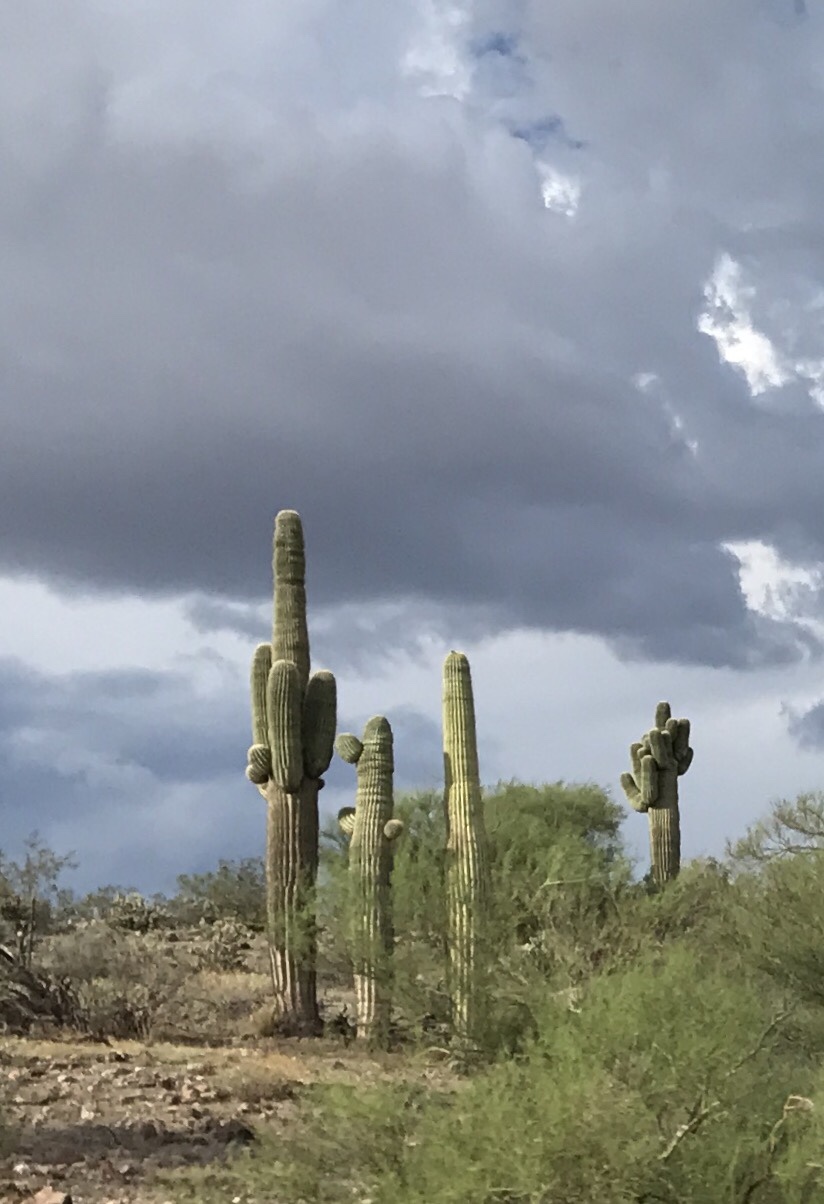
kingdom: Plantae
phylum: Tracheophyta
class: Magnoliopsida
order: Caryophyllales
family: Cactaceae
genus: Carnegiea
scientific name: Carnegiea gigantea
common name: Saguaro
